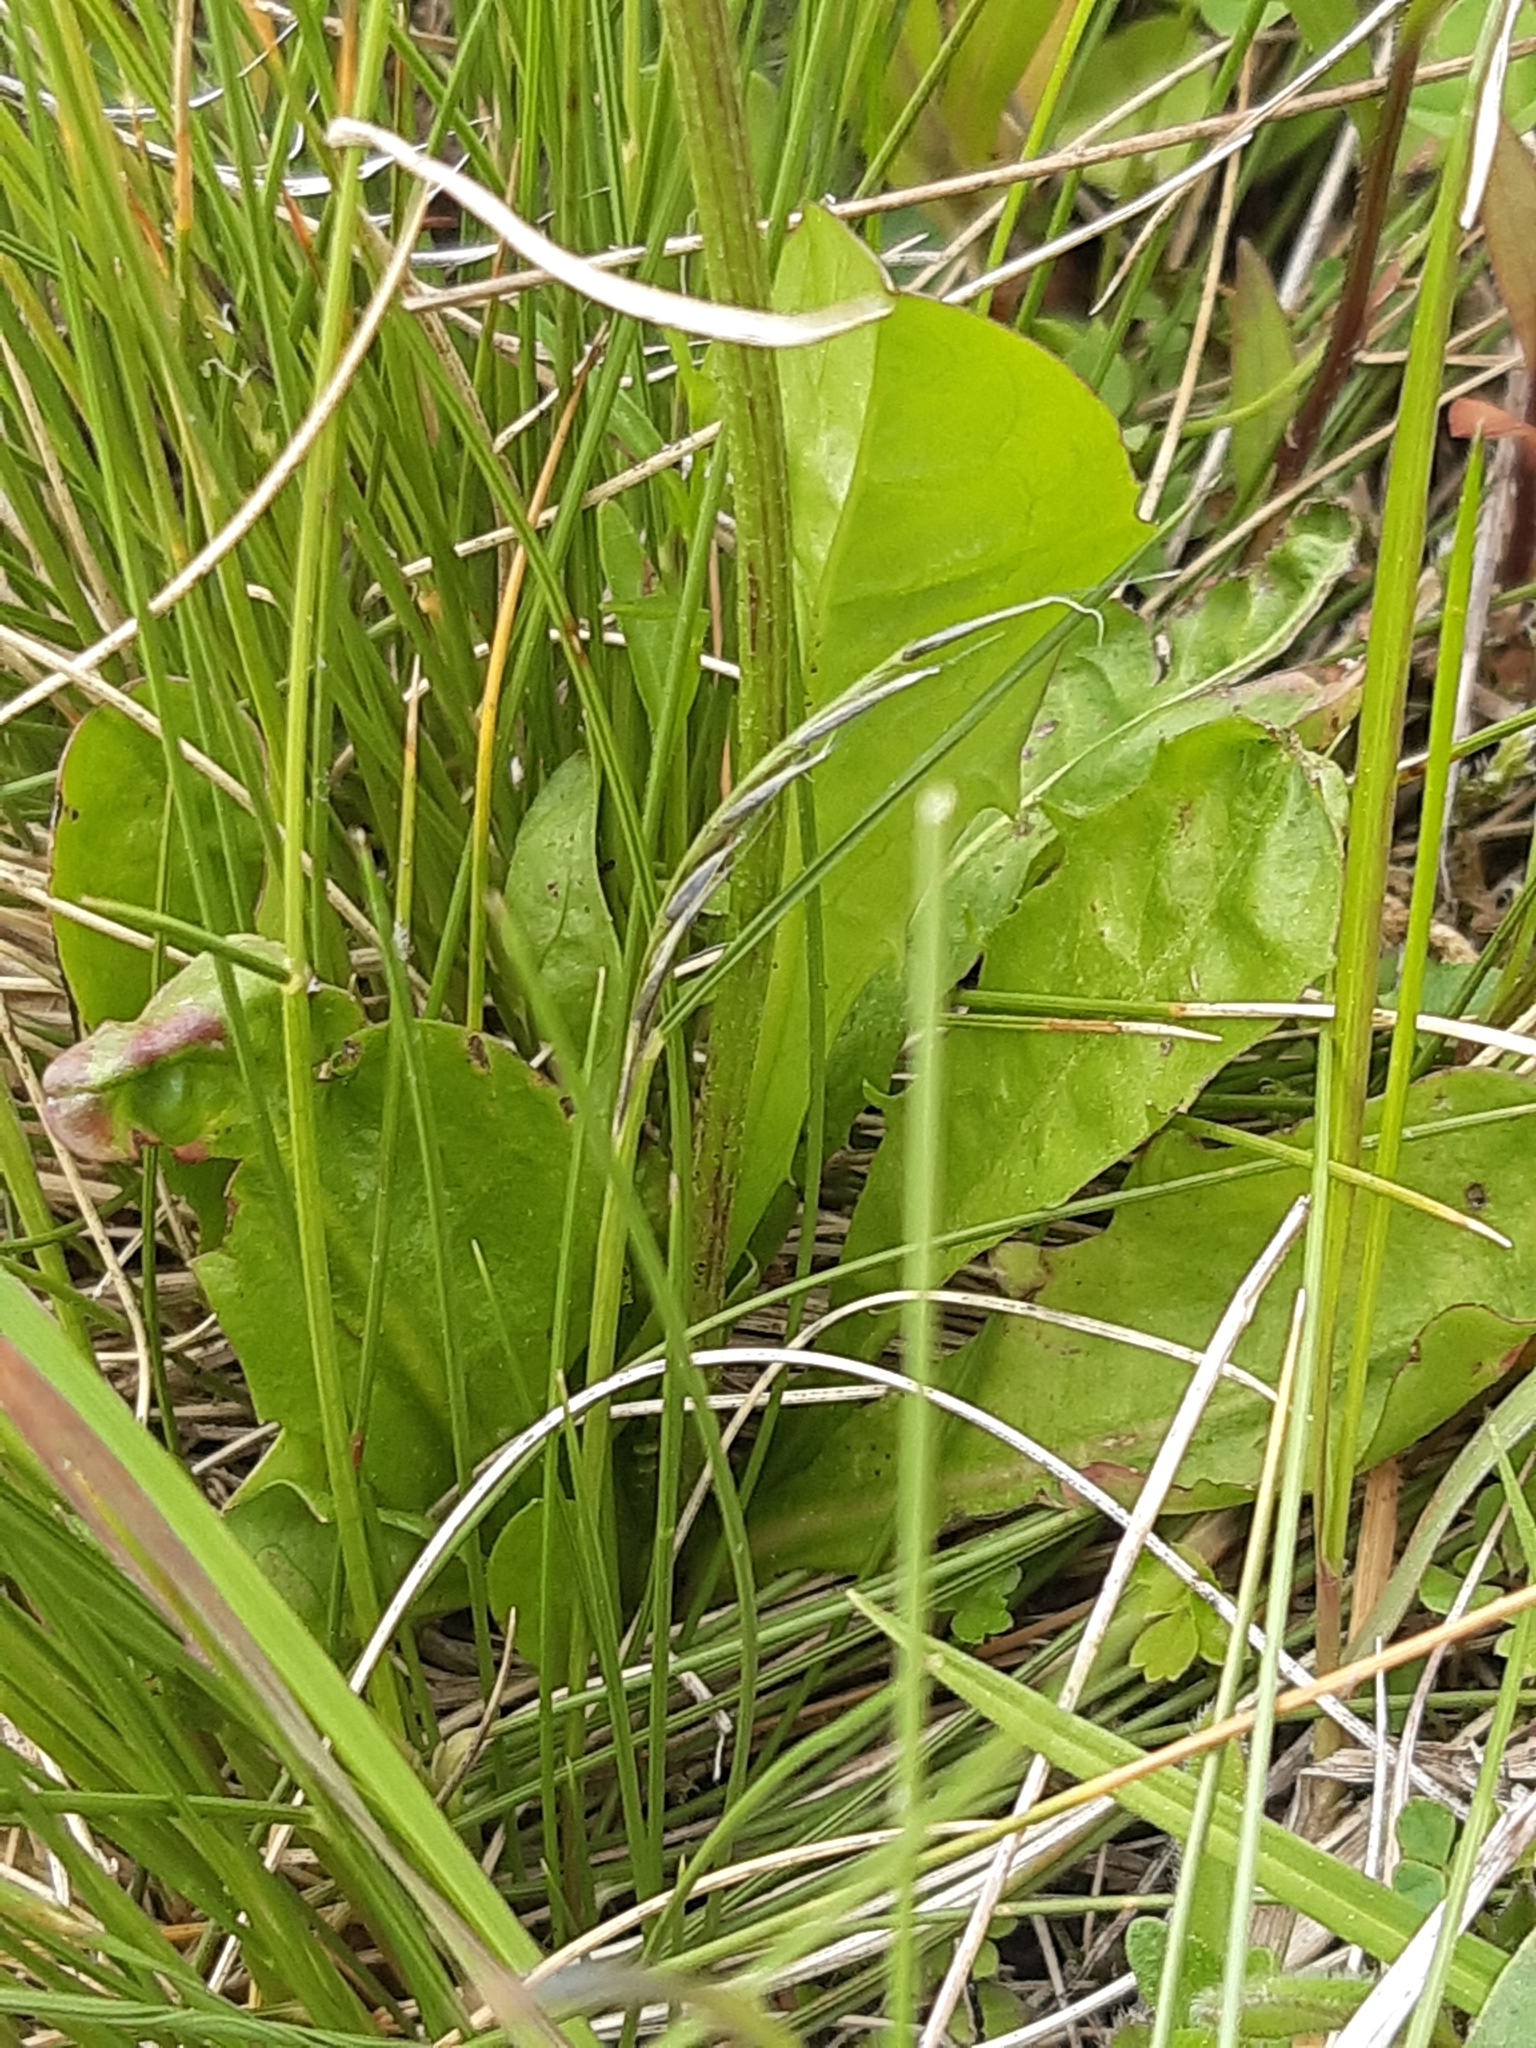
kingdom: Plantae
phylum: Tracheophyta
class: Magnoliopsida
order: Asterales
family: Asteraceae
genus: Crepis
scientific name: Crepis aurea
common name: Golden hawk's-beard
